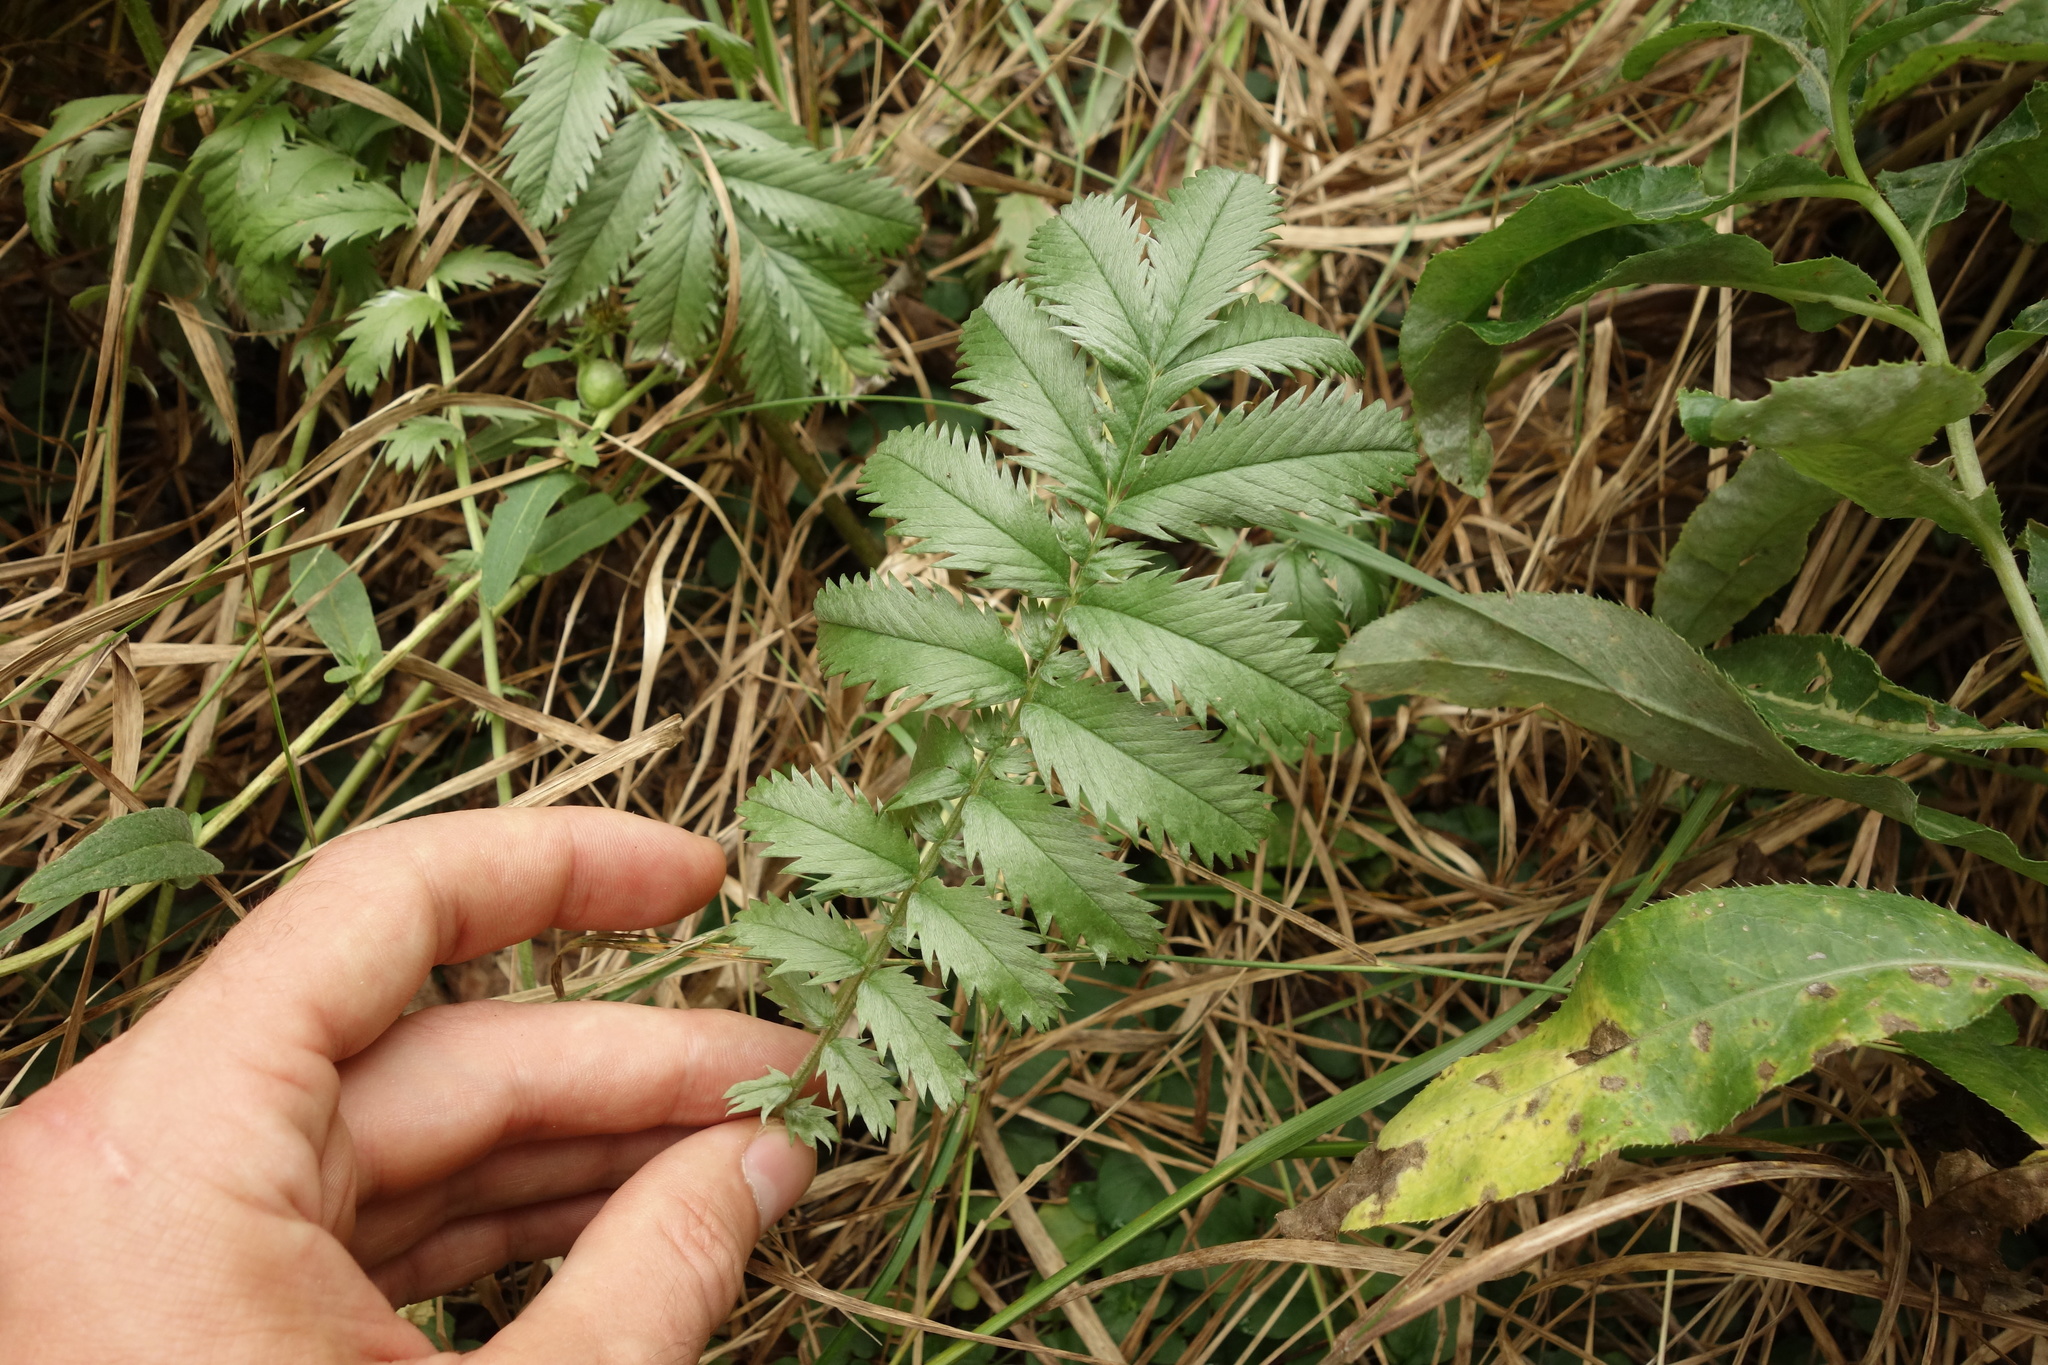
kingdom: Plantae
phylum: Tracheophyta
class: Magnoliopsida
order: Rosales
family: Rosaceae
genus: Argentina
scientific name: Argentina anserina
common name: Common silverweed
